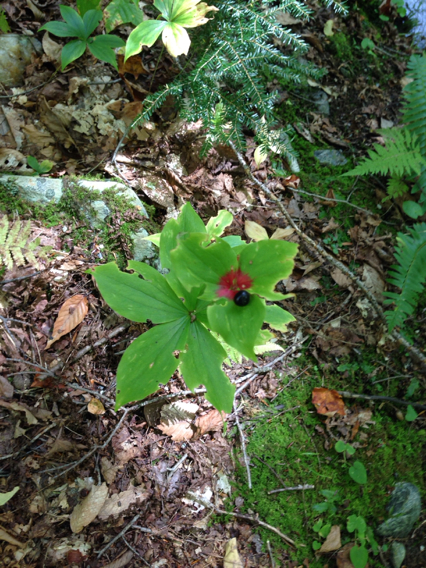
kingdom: Plantae
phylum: Tracheophyta
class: Liliopsida
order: Liliales
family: Liliaceae
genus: Medeola
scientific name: Medeola virginiana
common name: Indian cucumber-root
